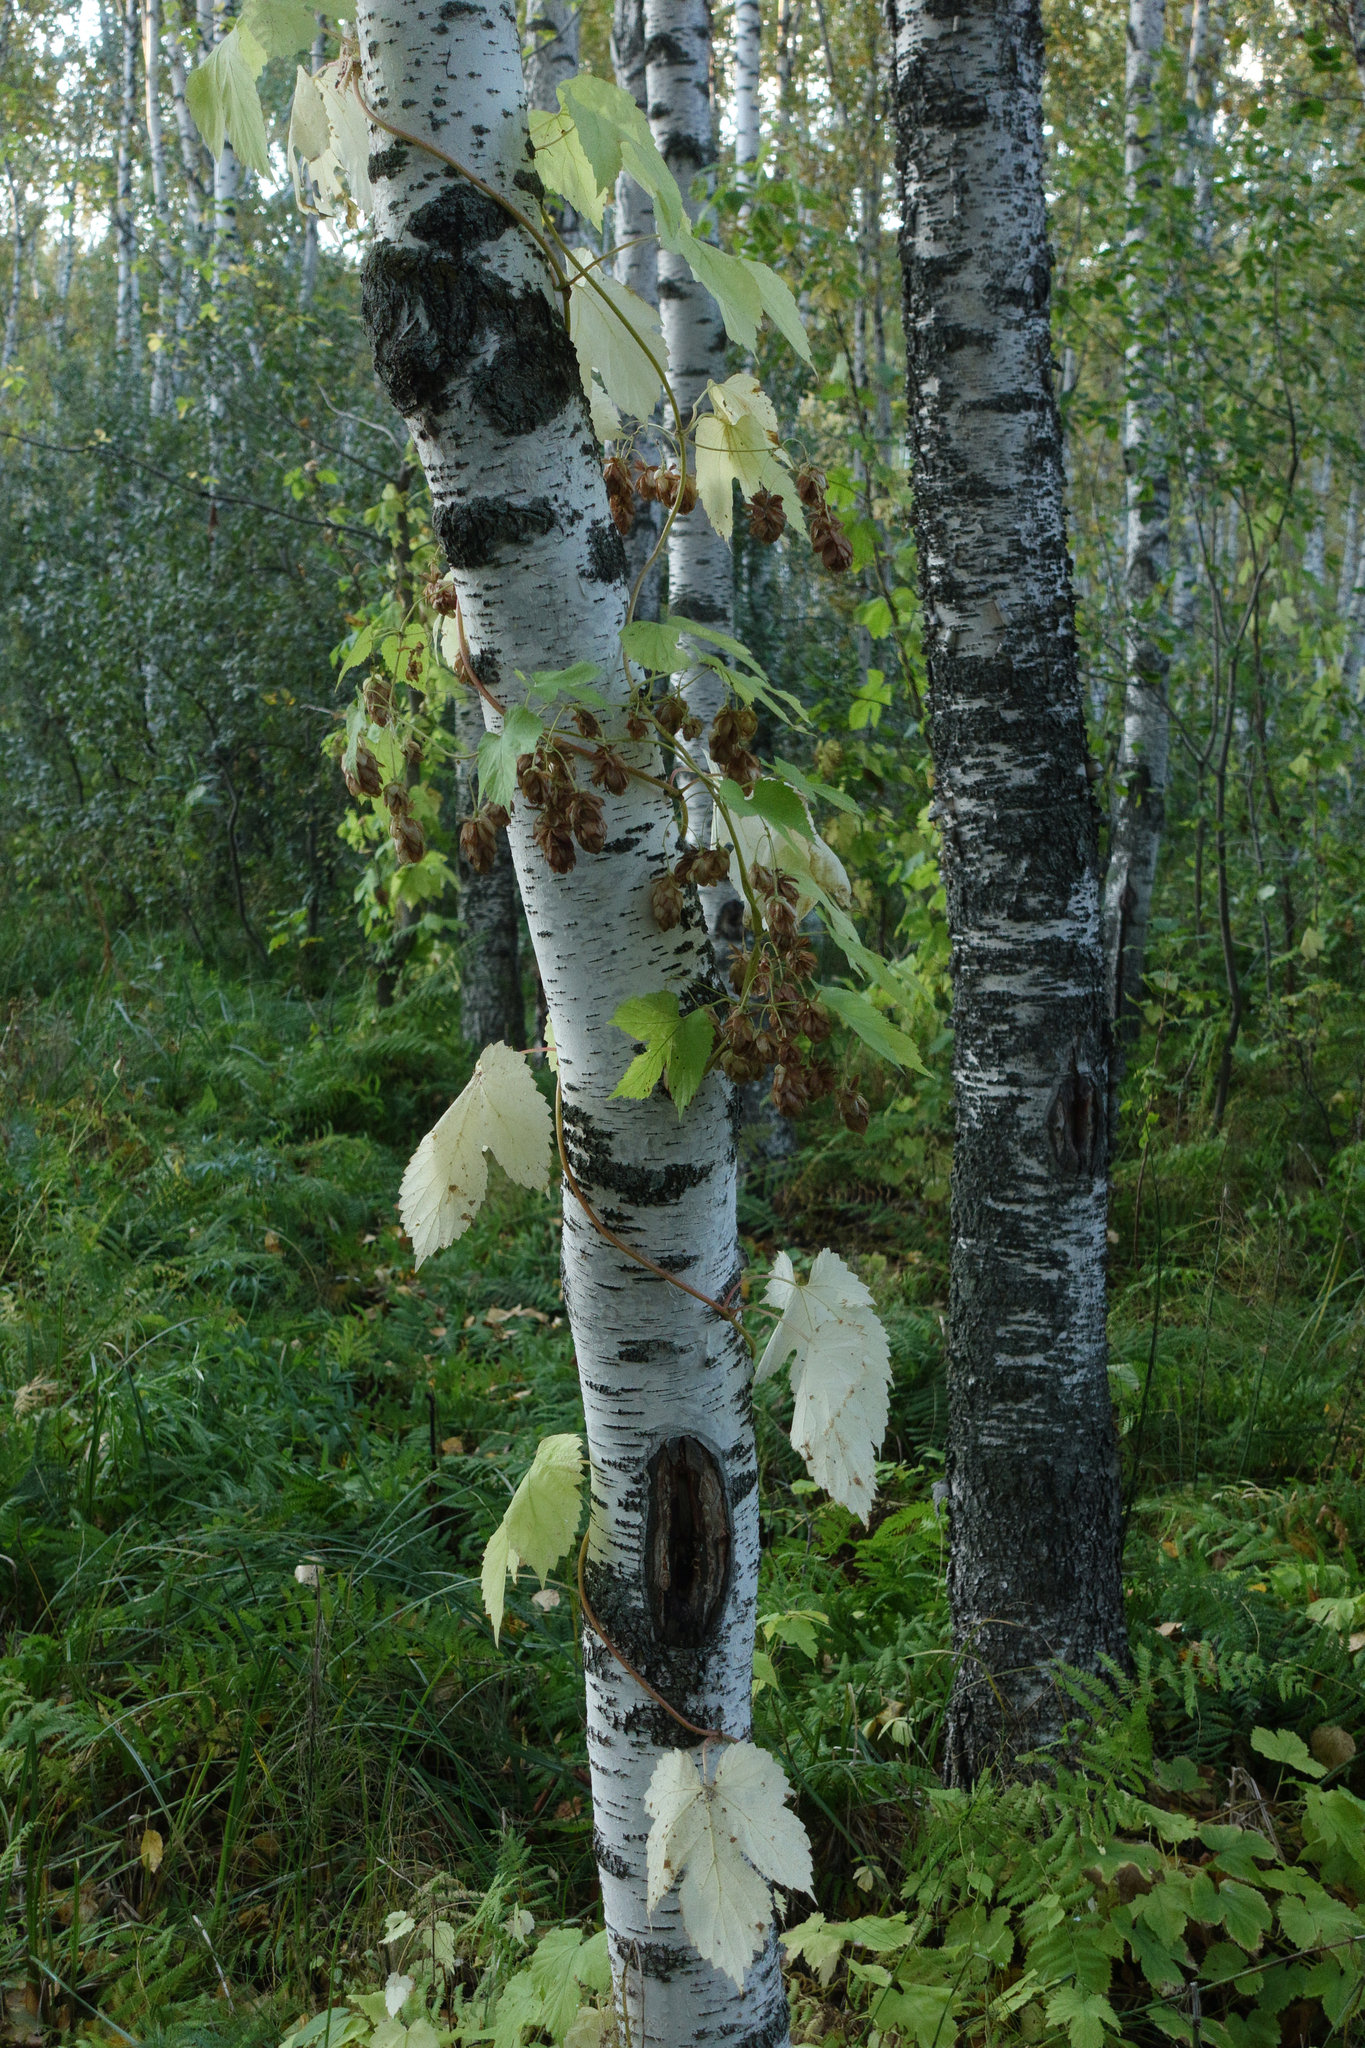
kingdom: Plantae
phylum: Tracheophyta
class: Magnoliopsida
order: Rosales
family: Cannabaceae
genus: Humulus
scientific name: Humulus lupulus
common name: Hop
